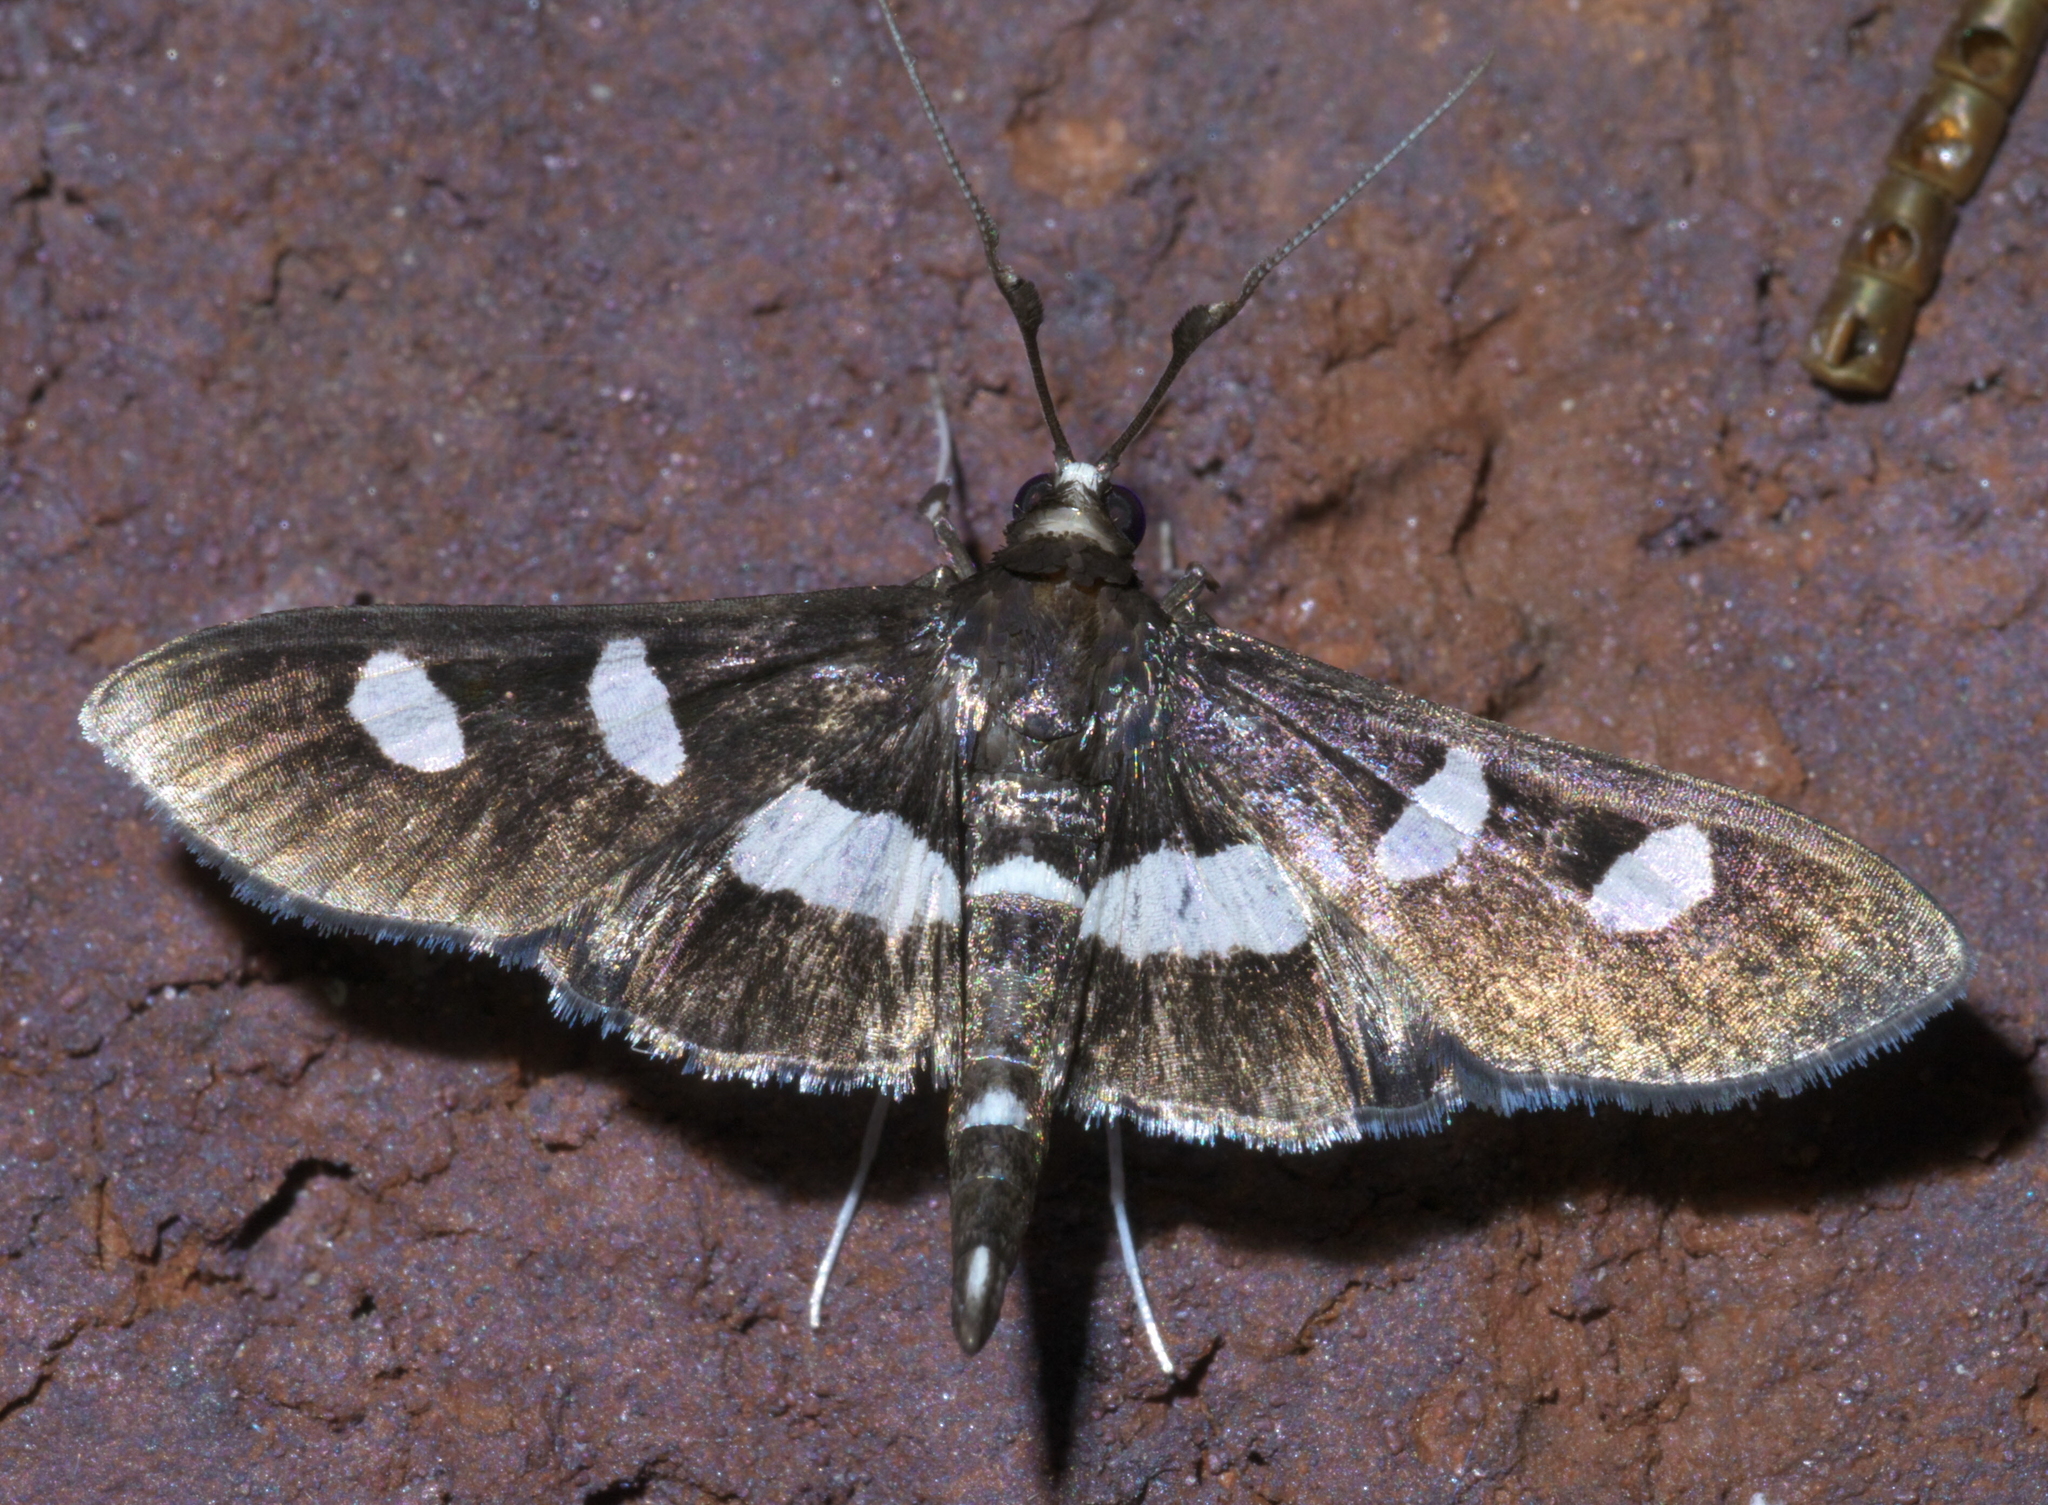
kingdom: Animalia
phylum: Arthropoda
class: Insecta
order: Lepidoptera
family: Crambidae
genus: Desmia
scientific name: Desmia
